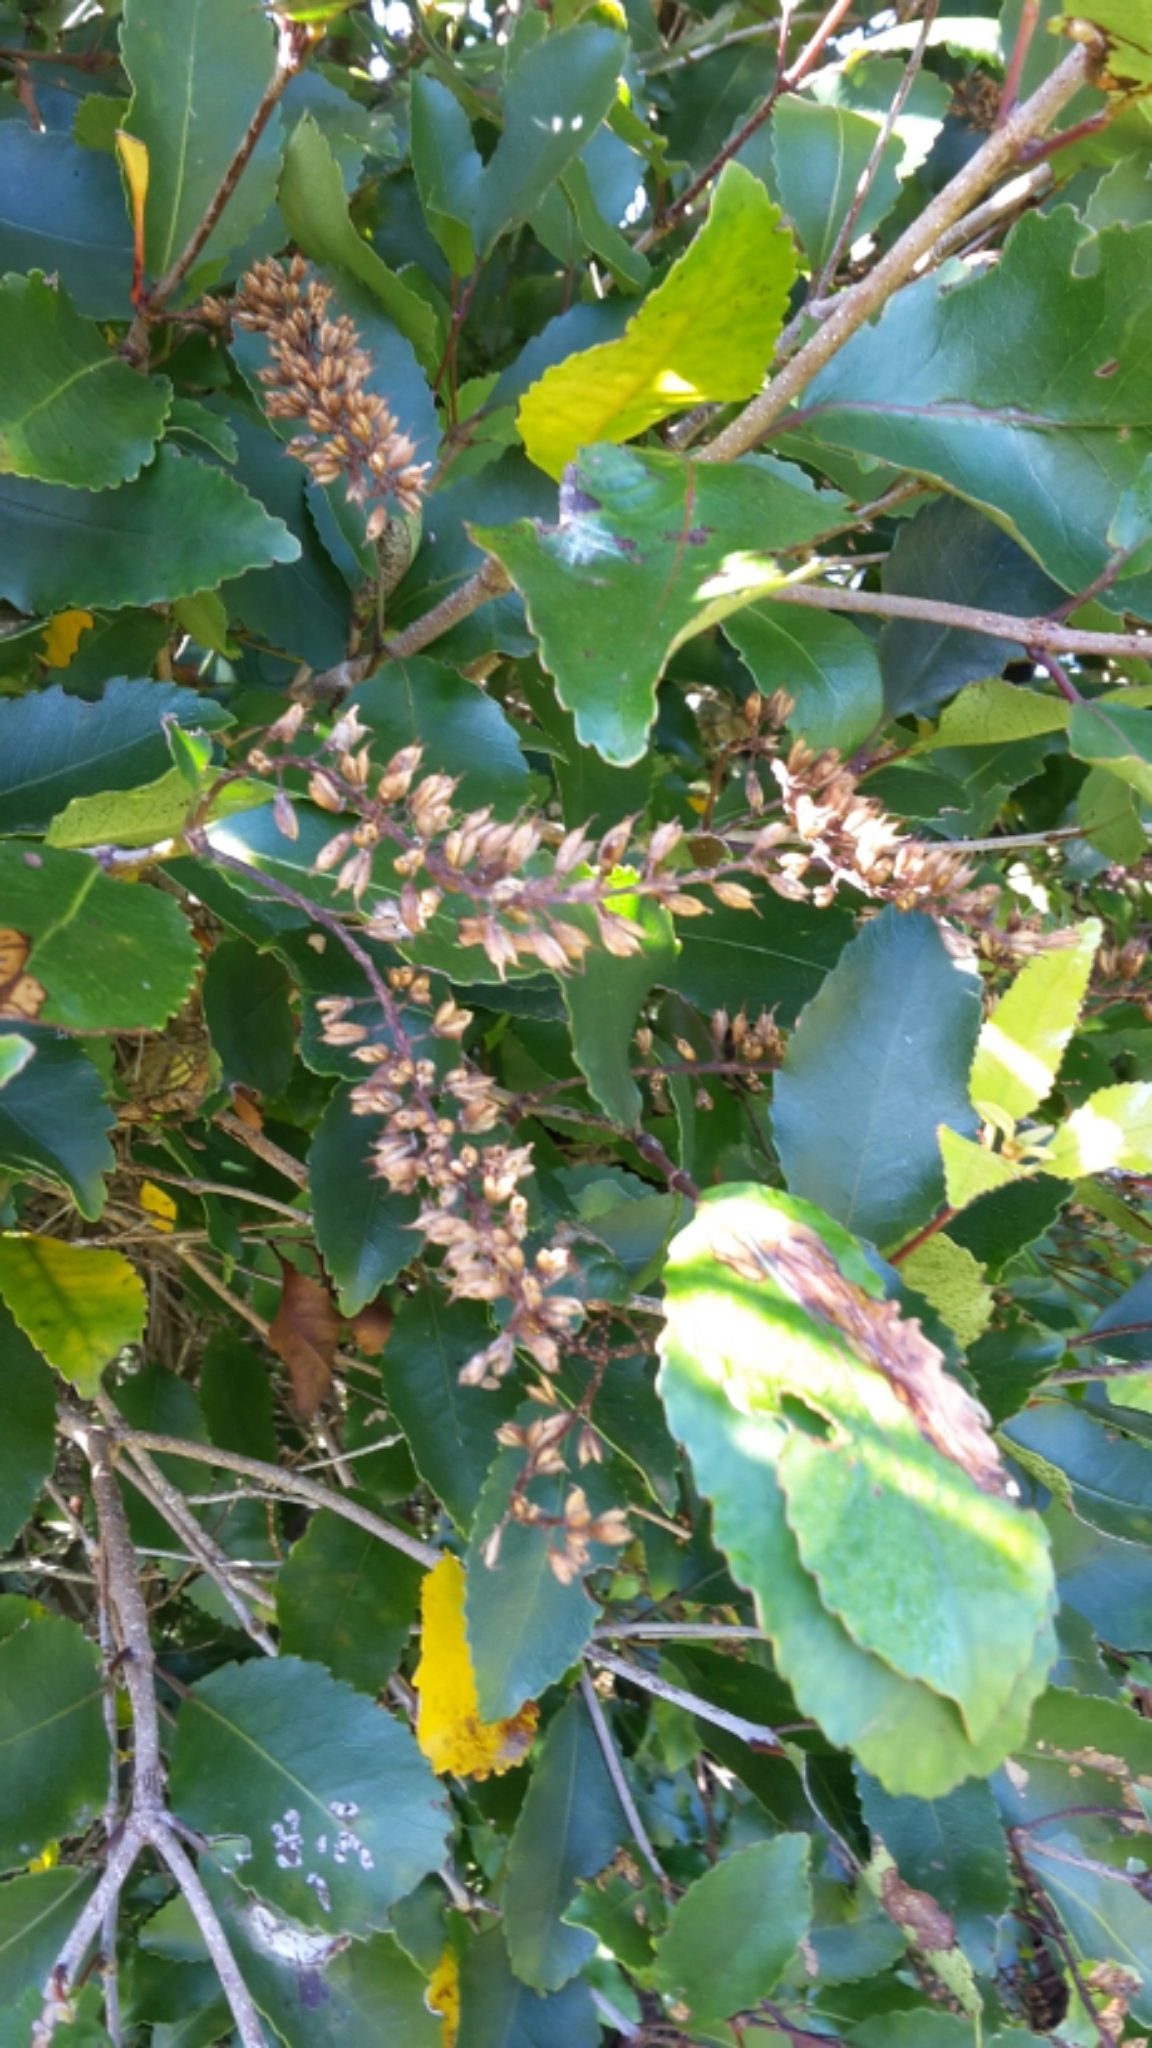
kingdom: Plantae
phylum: Tracheophyta
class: Magnoliopsida
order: Oxalidales
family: Cunoniaceae
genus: Pterophylla
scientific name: Pterophylla racemosa
